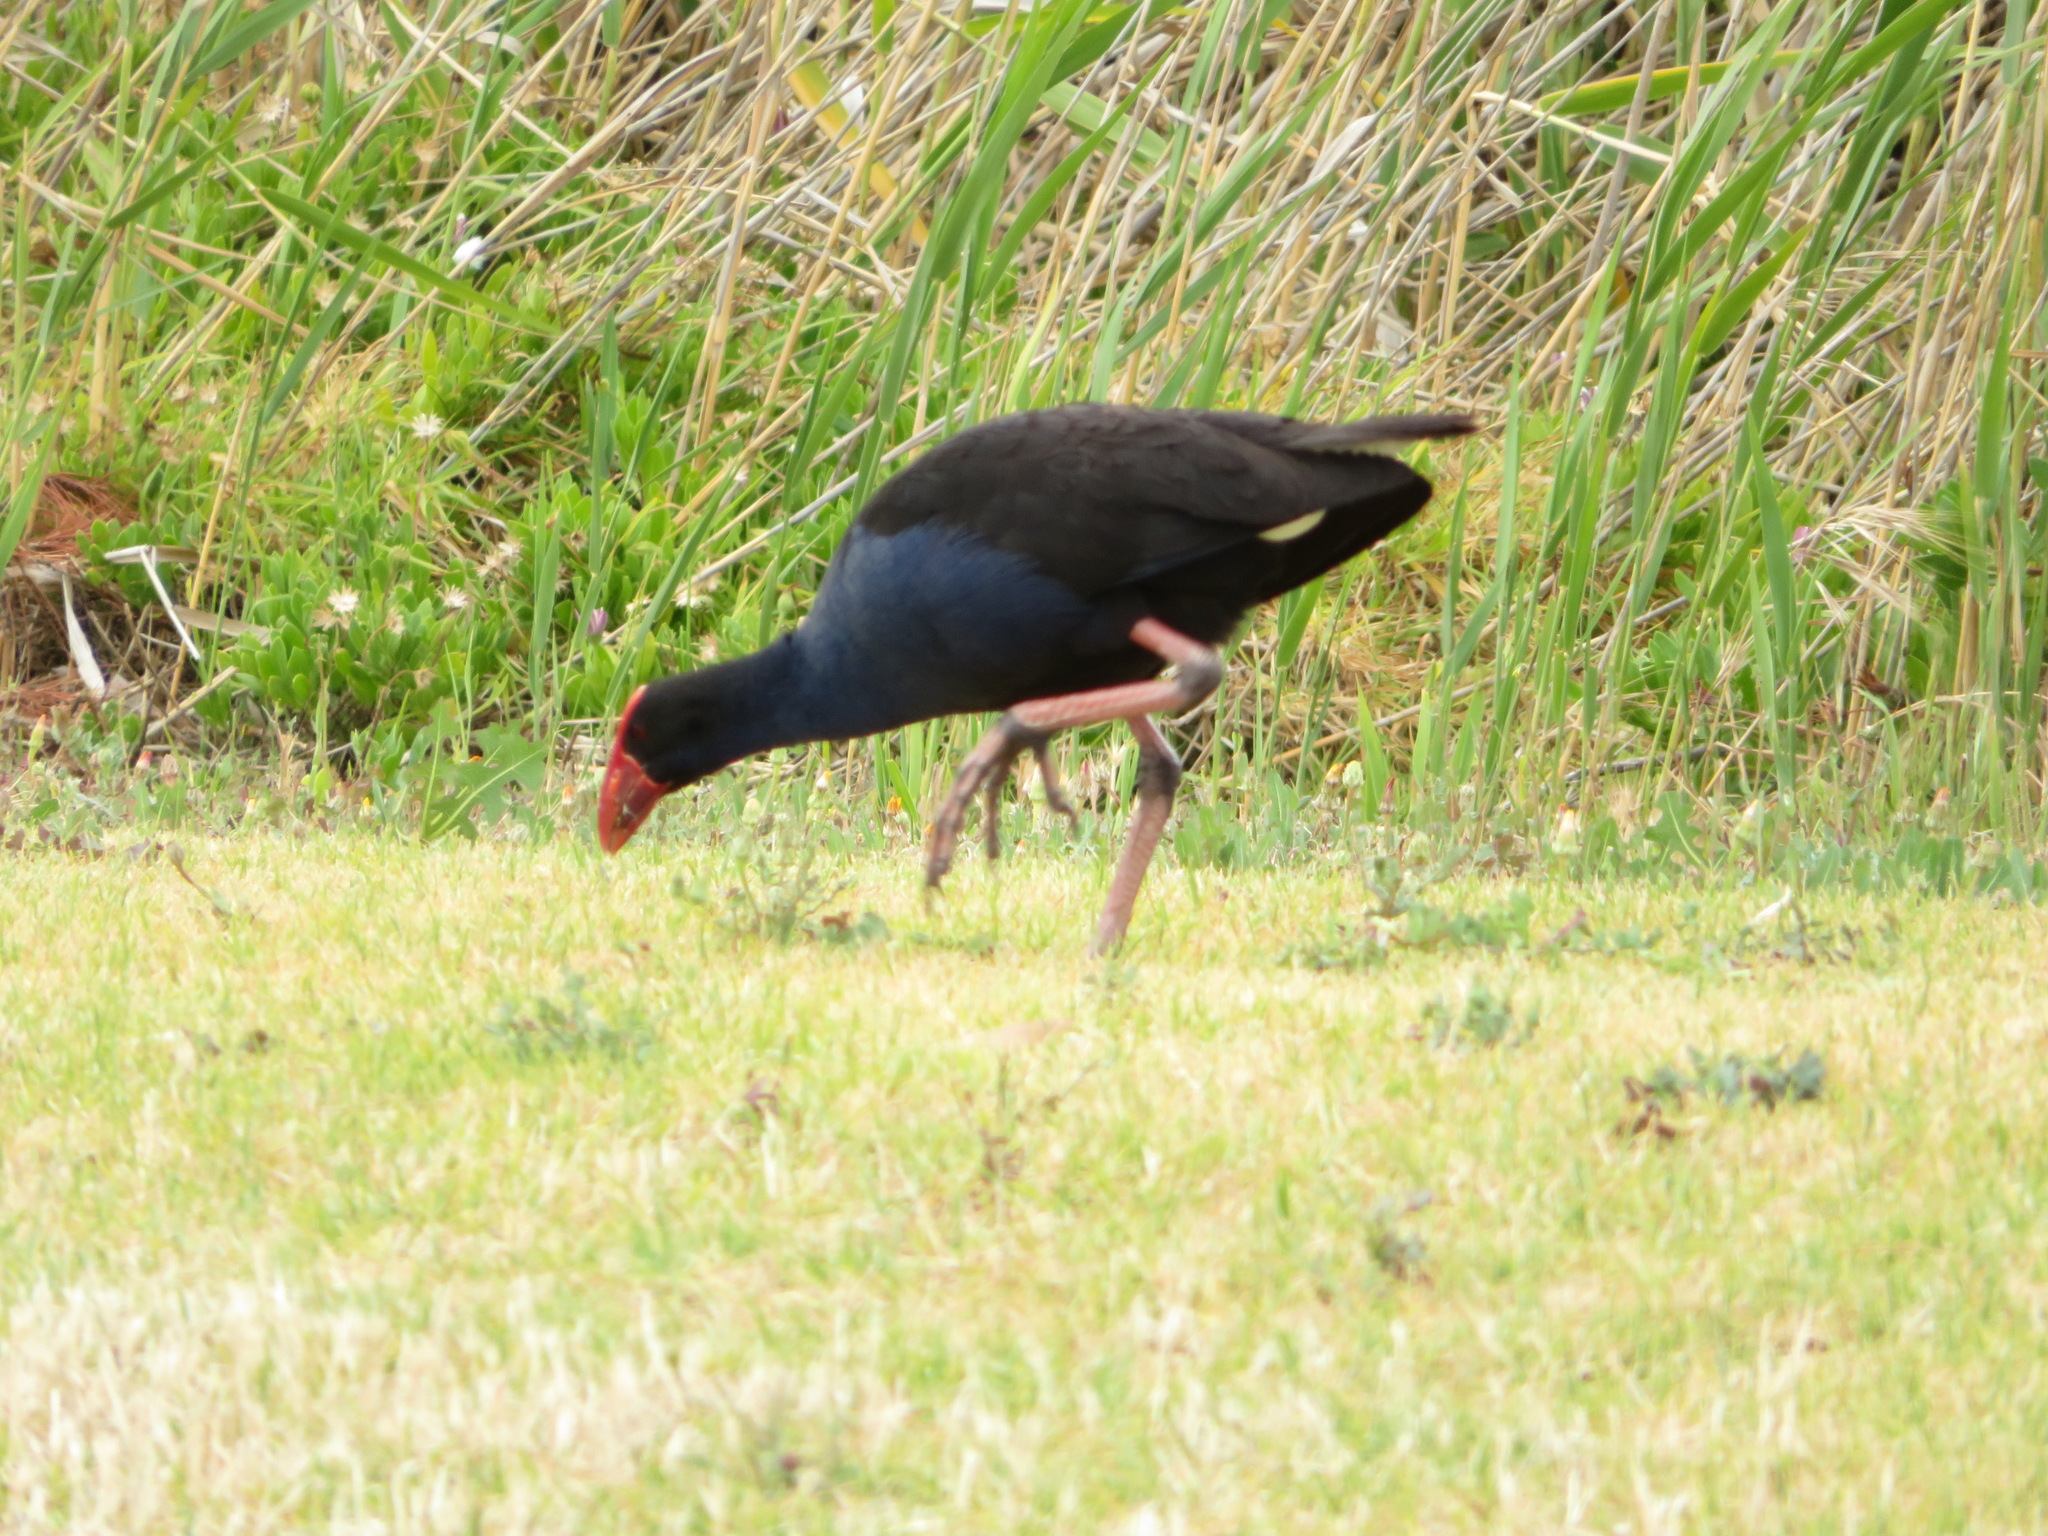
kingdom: Animalia
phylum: Chordata
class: Aves
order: Gruiformes
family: Rallidae
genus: Porphyrio
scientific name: Porphyrio melanotus
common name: Australasian swamphen
